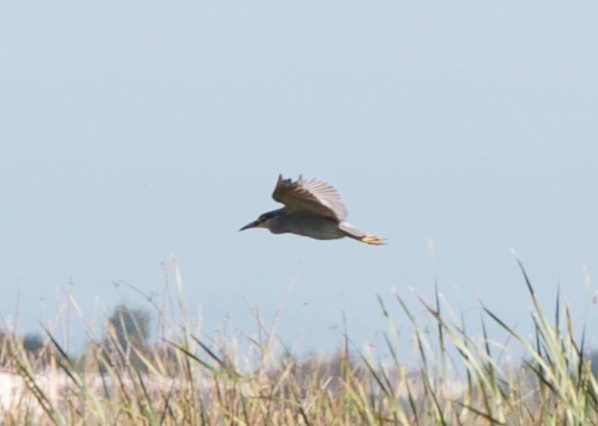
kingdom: Animalia
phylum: Chordata
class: Aves
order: Pelecaniformes
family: Ardeidae
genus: Nycticorax
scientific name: Nycticorax nycticorax
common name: Black-crowned night heron
